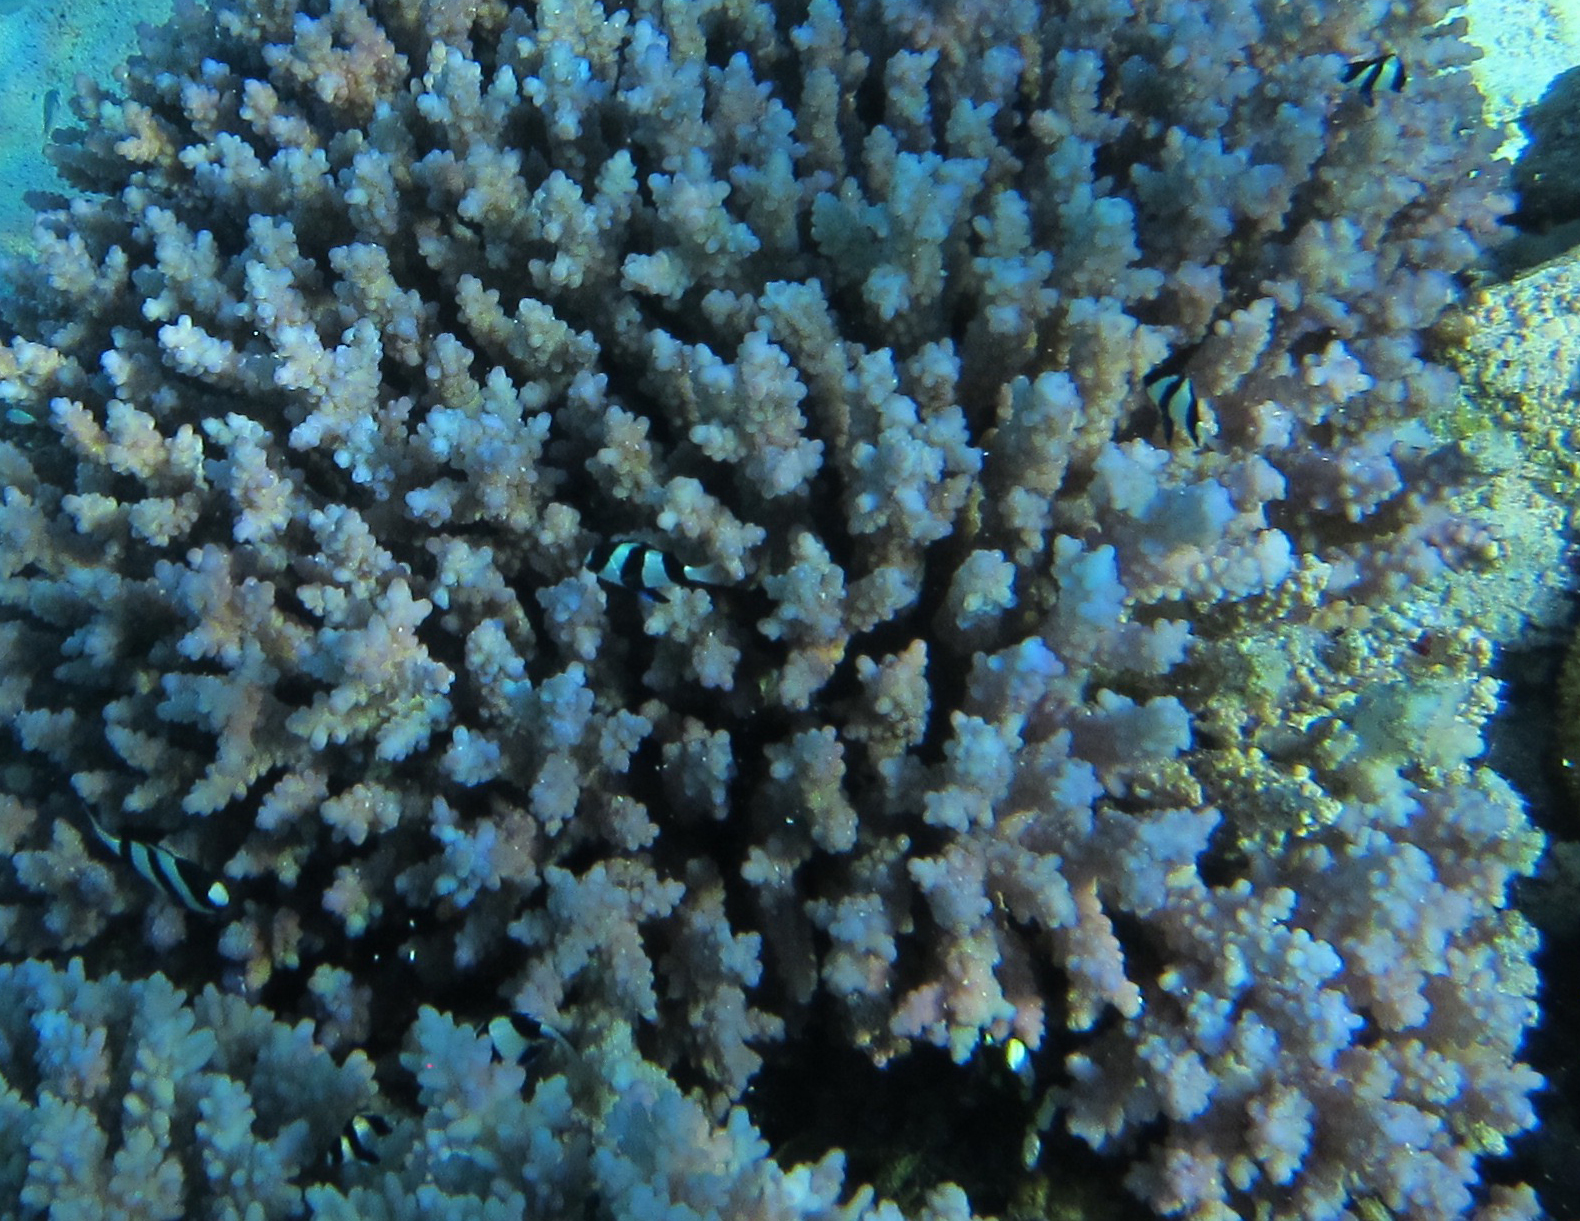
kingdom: Animalia
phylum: Chordata
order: Perciformes
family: Pomacentridae
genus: Dascyllus
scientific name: Dascyllus aruanus
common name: Humbug dascyllus
